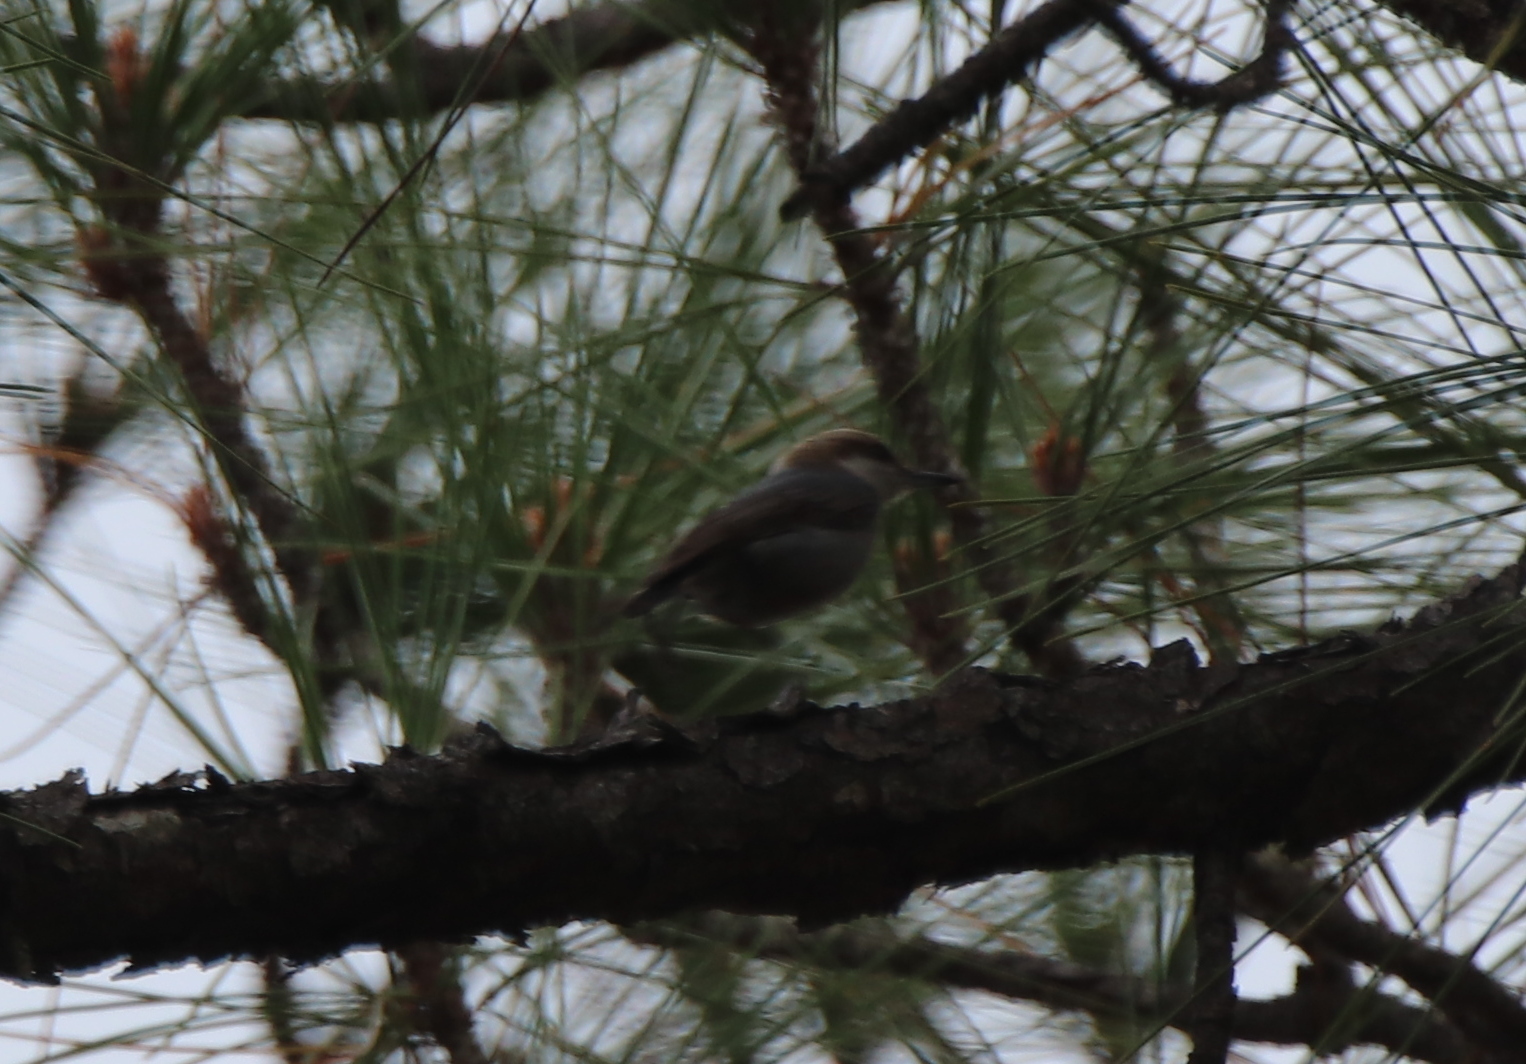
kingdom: Animalia
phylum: Chordata
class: Aves
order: Passeriformes
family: Sittidae
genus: Sitta
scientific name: Sitta pusilla
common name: Brown-headed nuthatch
